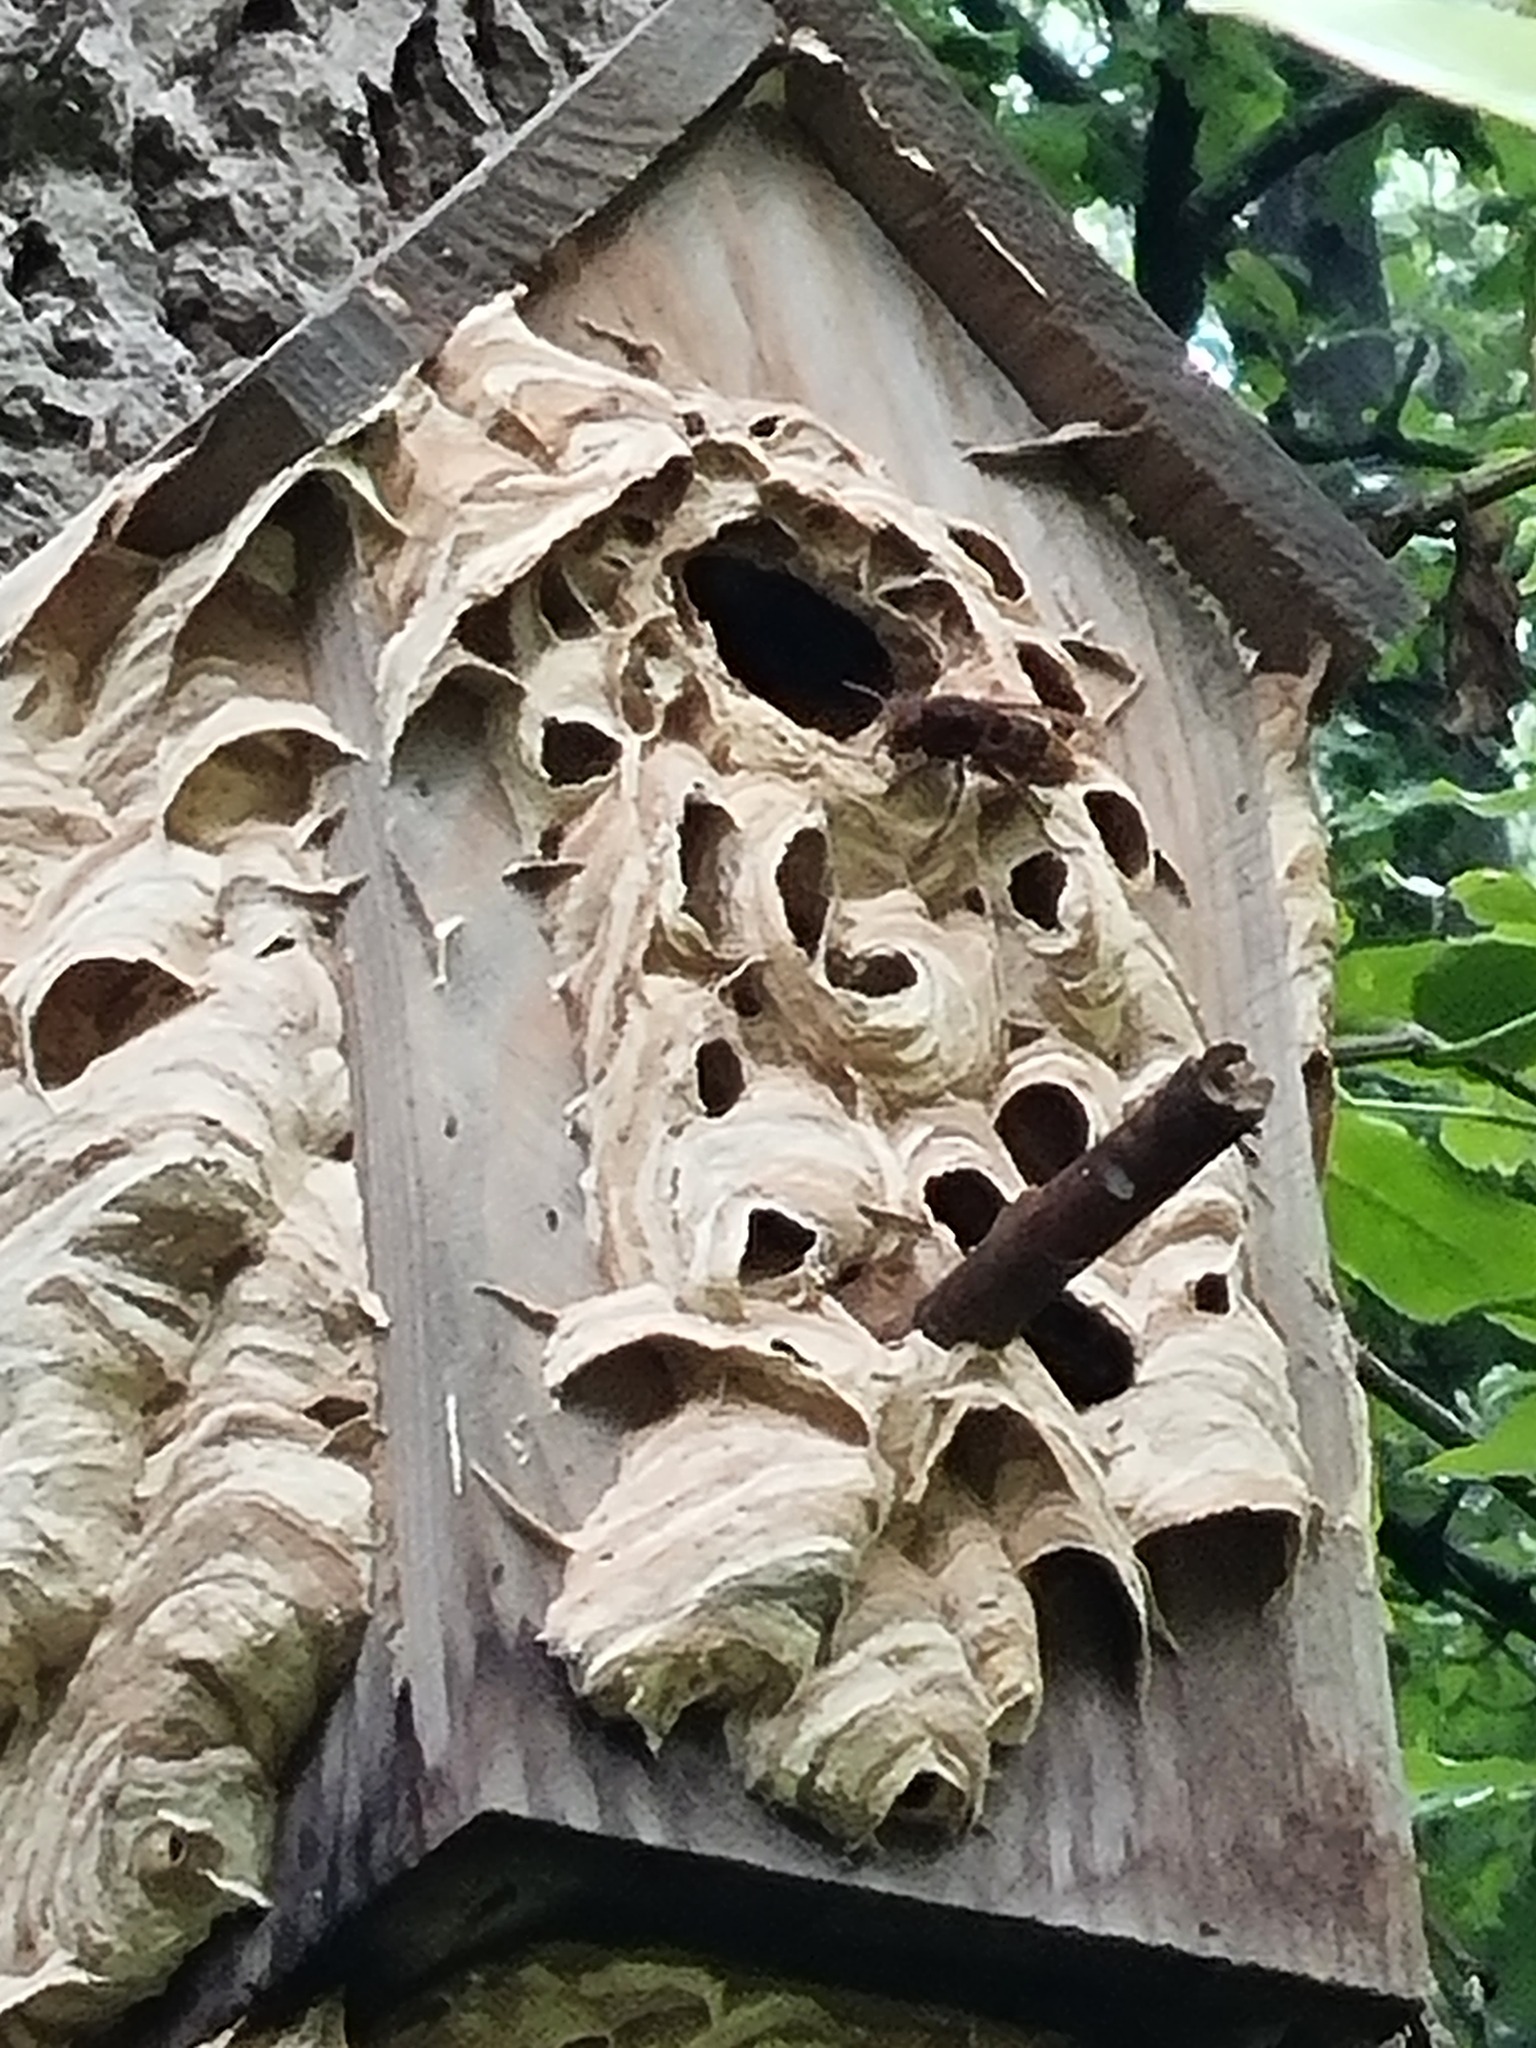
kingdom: Animalia
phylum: Arthropoda
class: Insecta
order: Hymenoptera
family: Vespidae
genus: Vespa
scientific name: Vespa crabro
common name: Hornet
